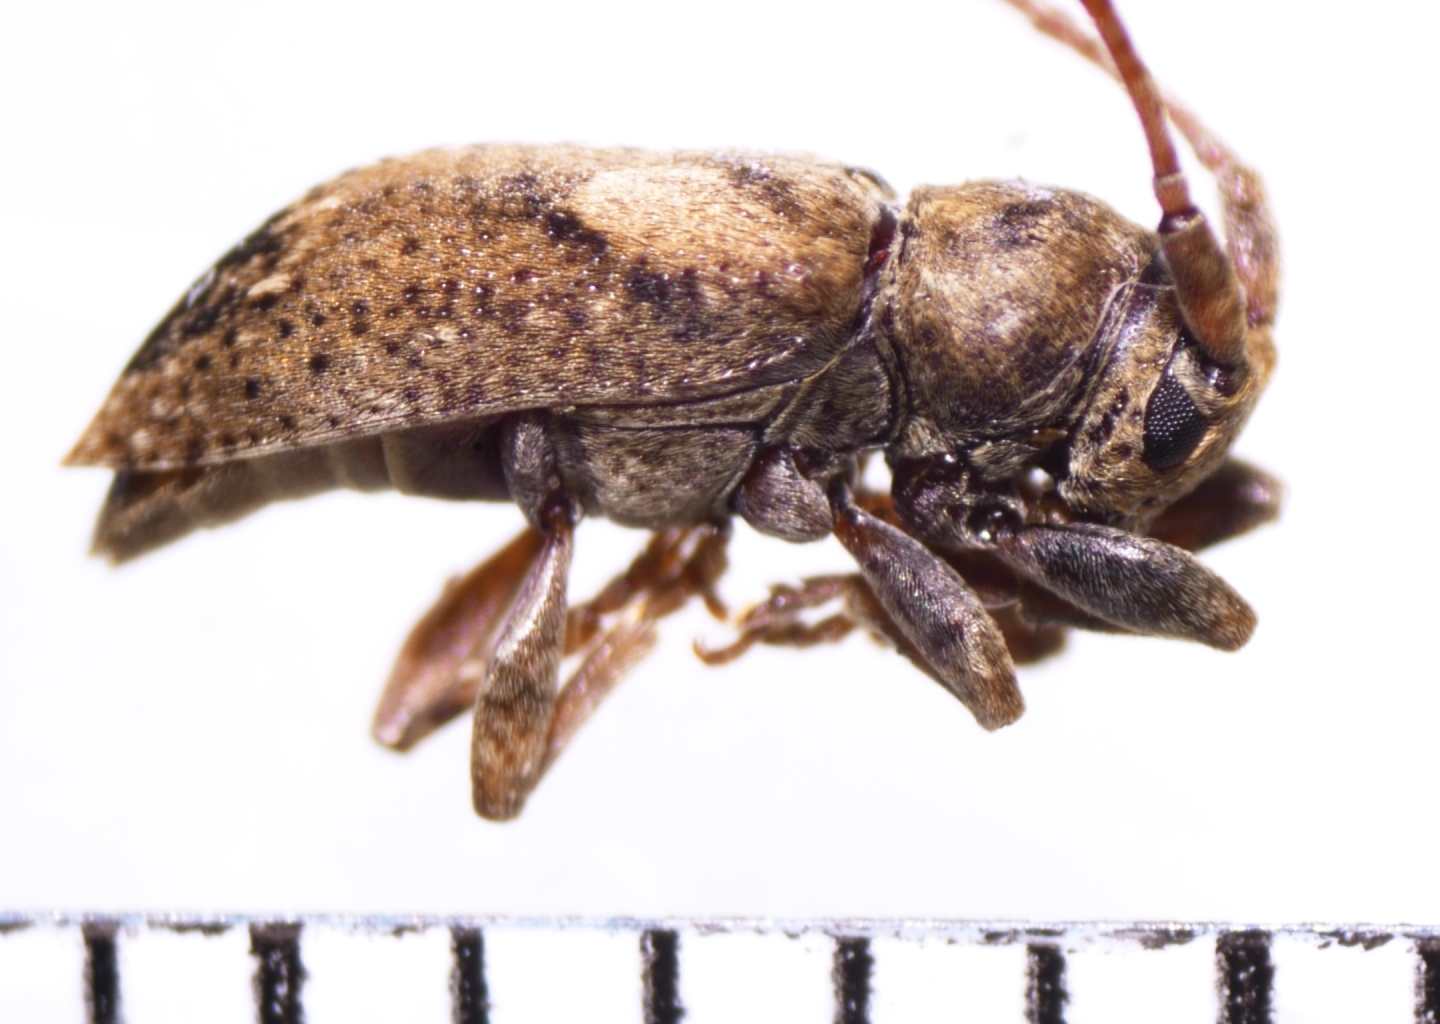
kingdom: Animalia
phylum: Arthropoda
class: Insecta
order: Coleoptera
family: Cerambycidae
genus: Pterolophia
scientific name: Pterolophia lateripicta
